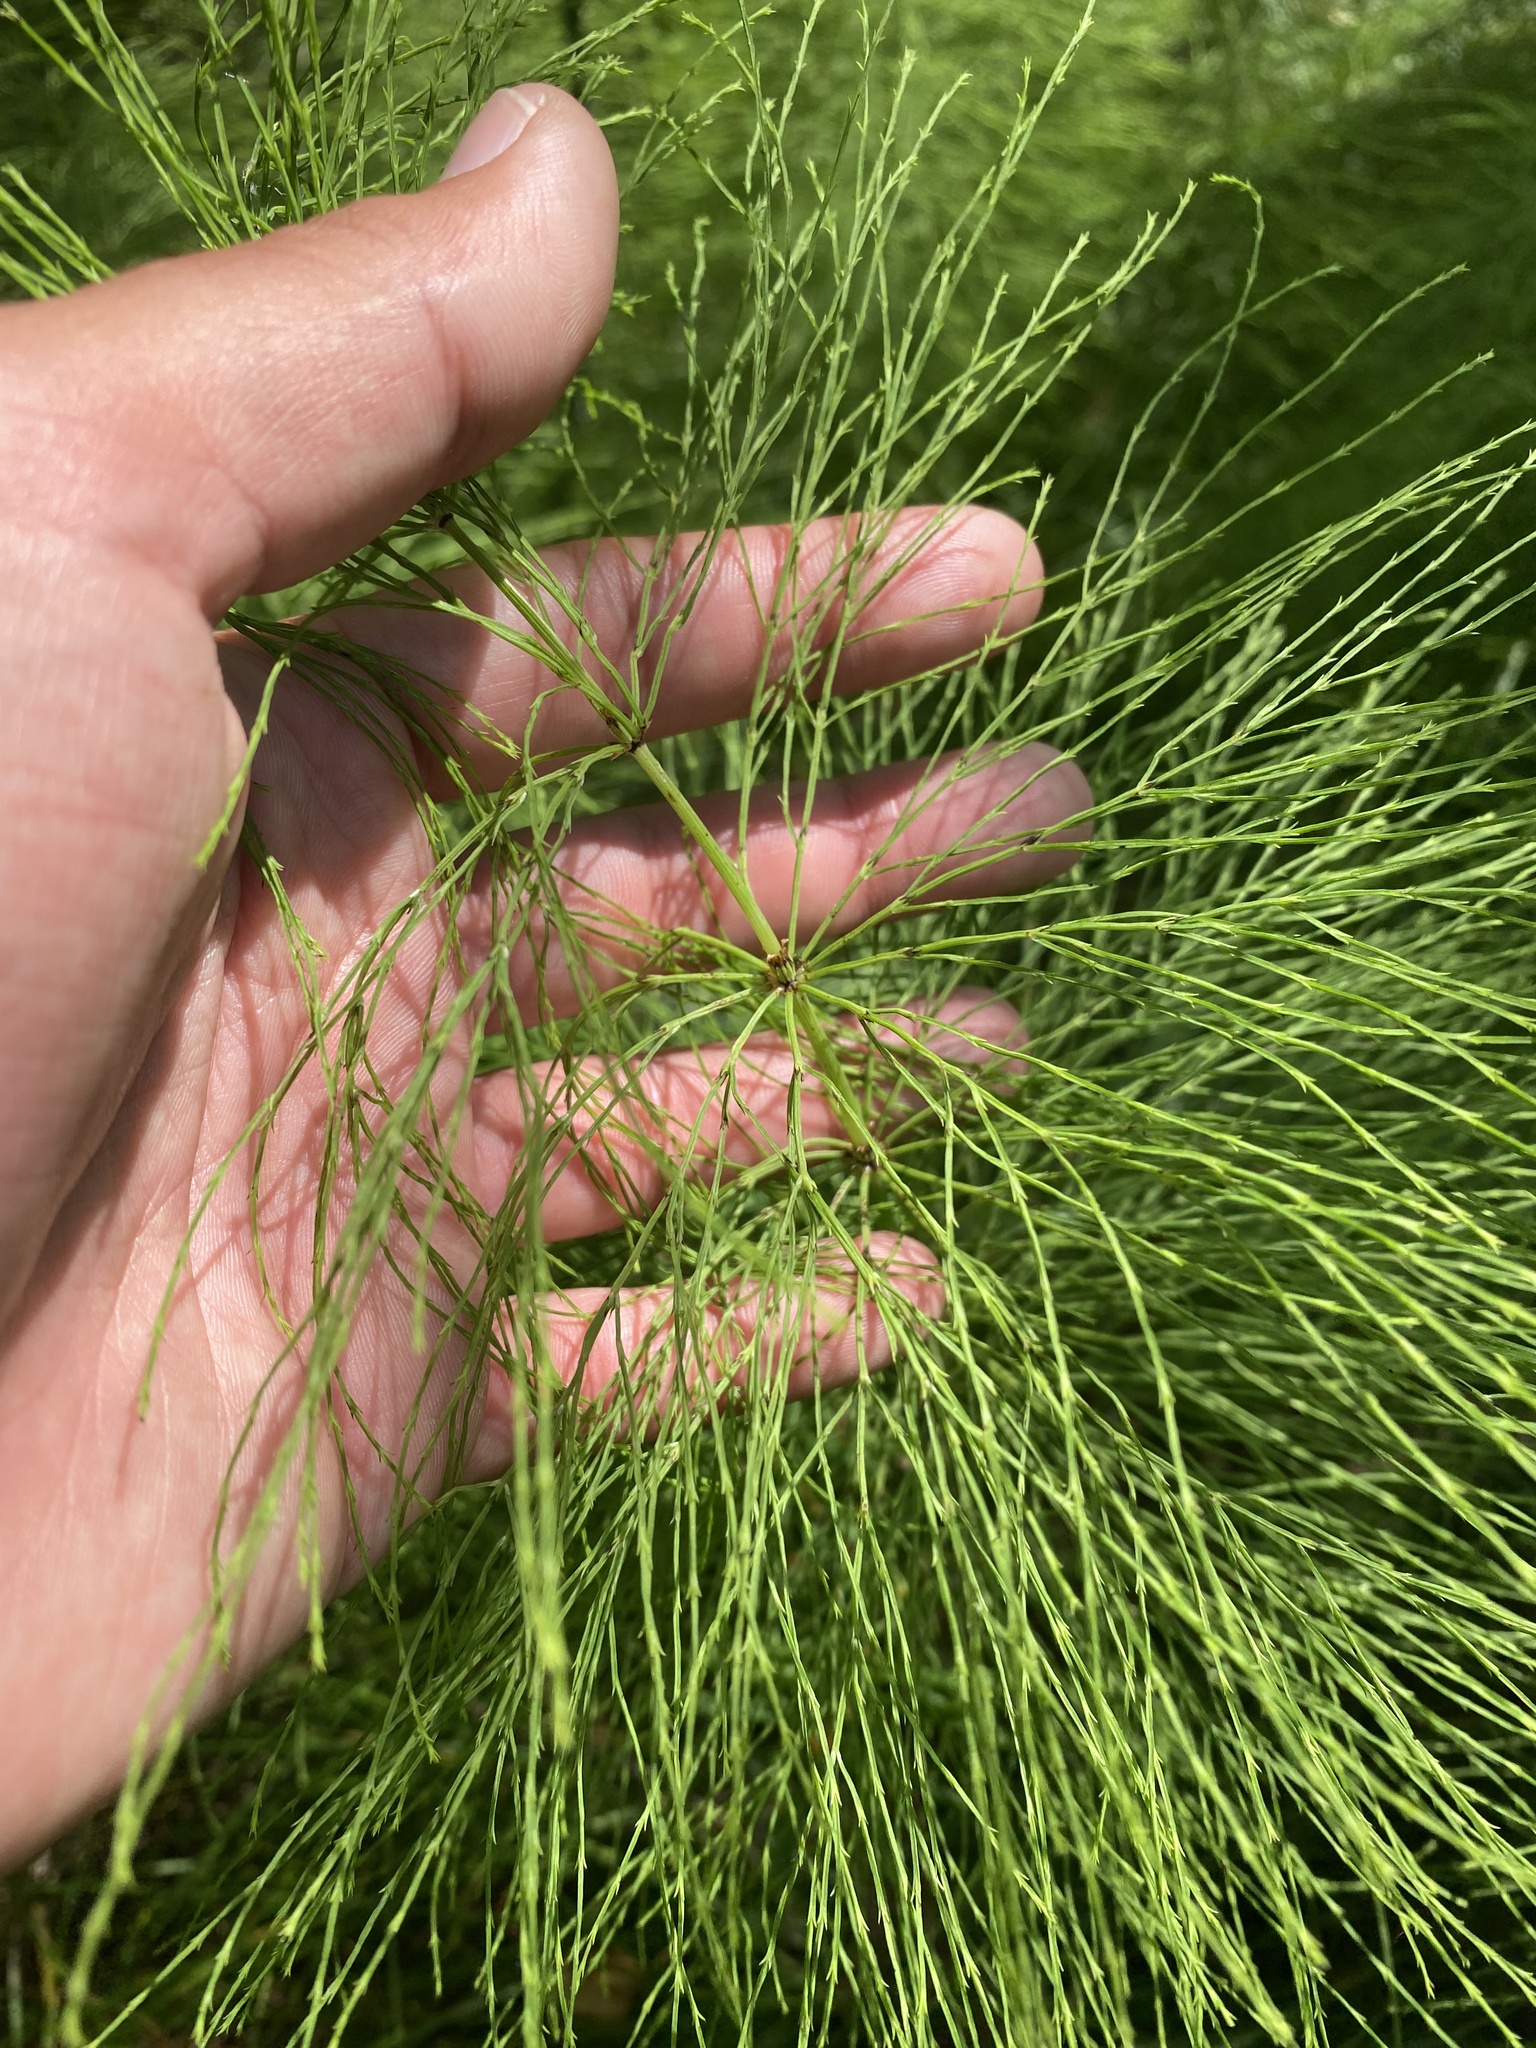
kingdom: Plantae
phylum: Tracheophyta
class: Polypodiopsida
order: Equisetales
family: Equisetaceae
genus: Equisetum
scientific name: Equisetum sylvaticum
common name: Wood horsetail
